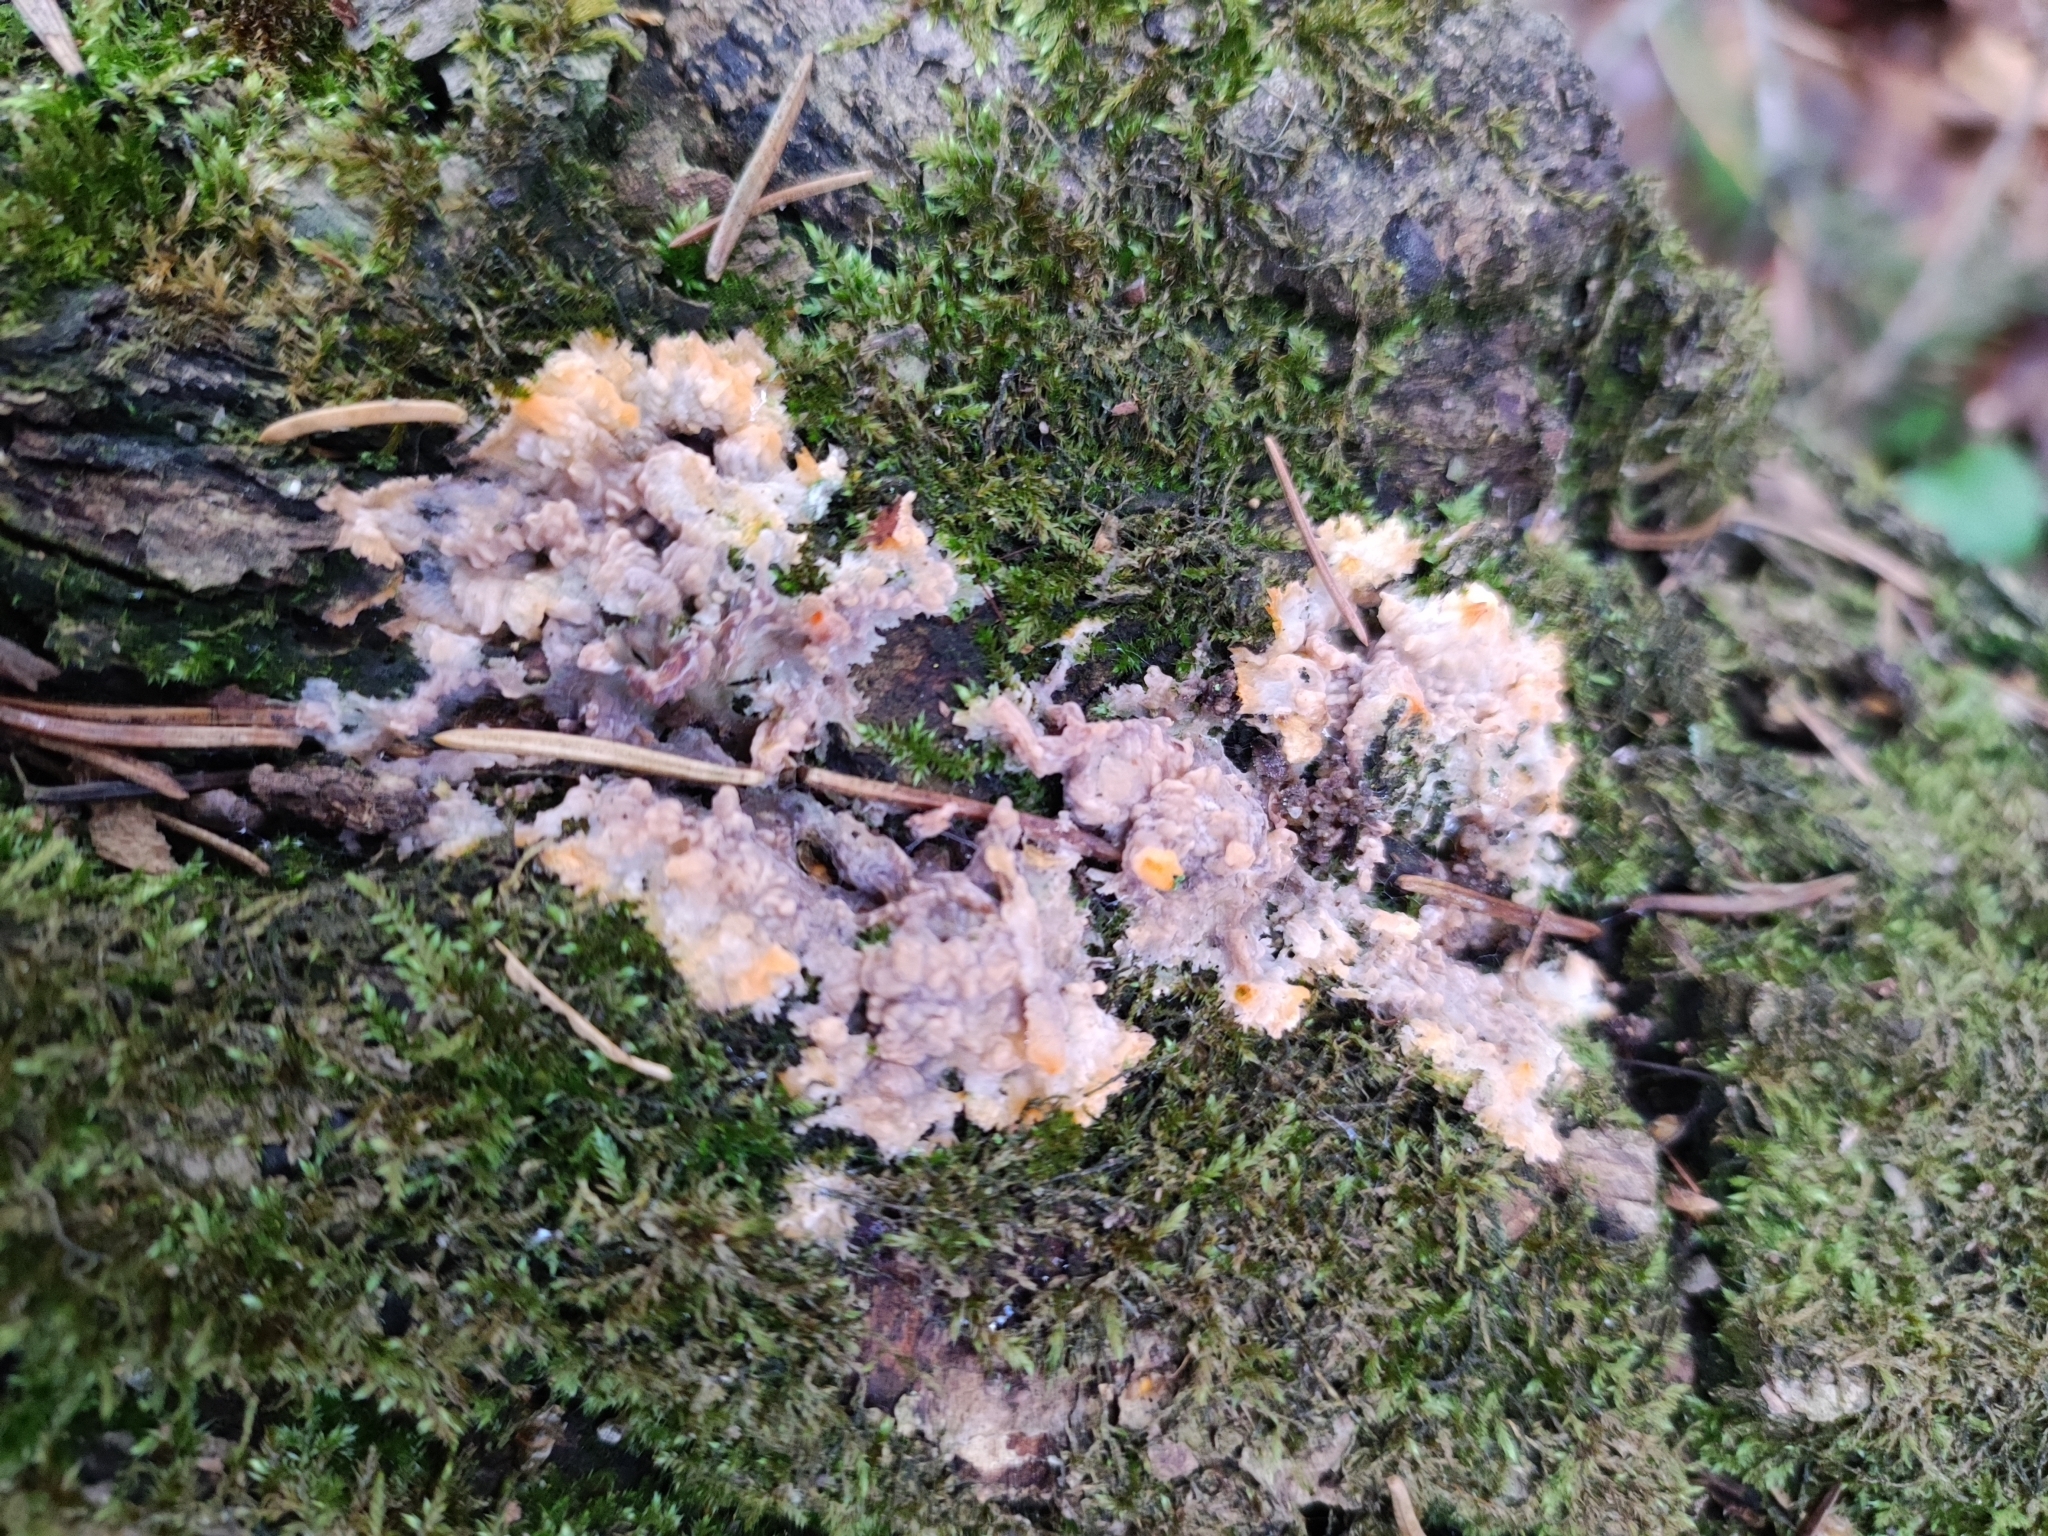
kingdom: Fungi
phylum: Basidiomycota
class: Agaricomycetes
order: Polyporales
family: Meruliaceae
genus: Phlebia
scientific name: Phlebia radiata
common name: Wrinkled crust
